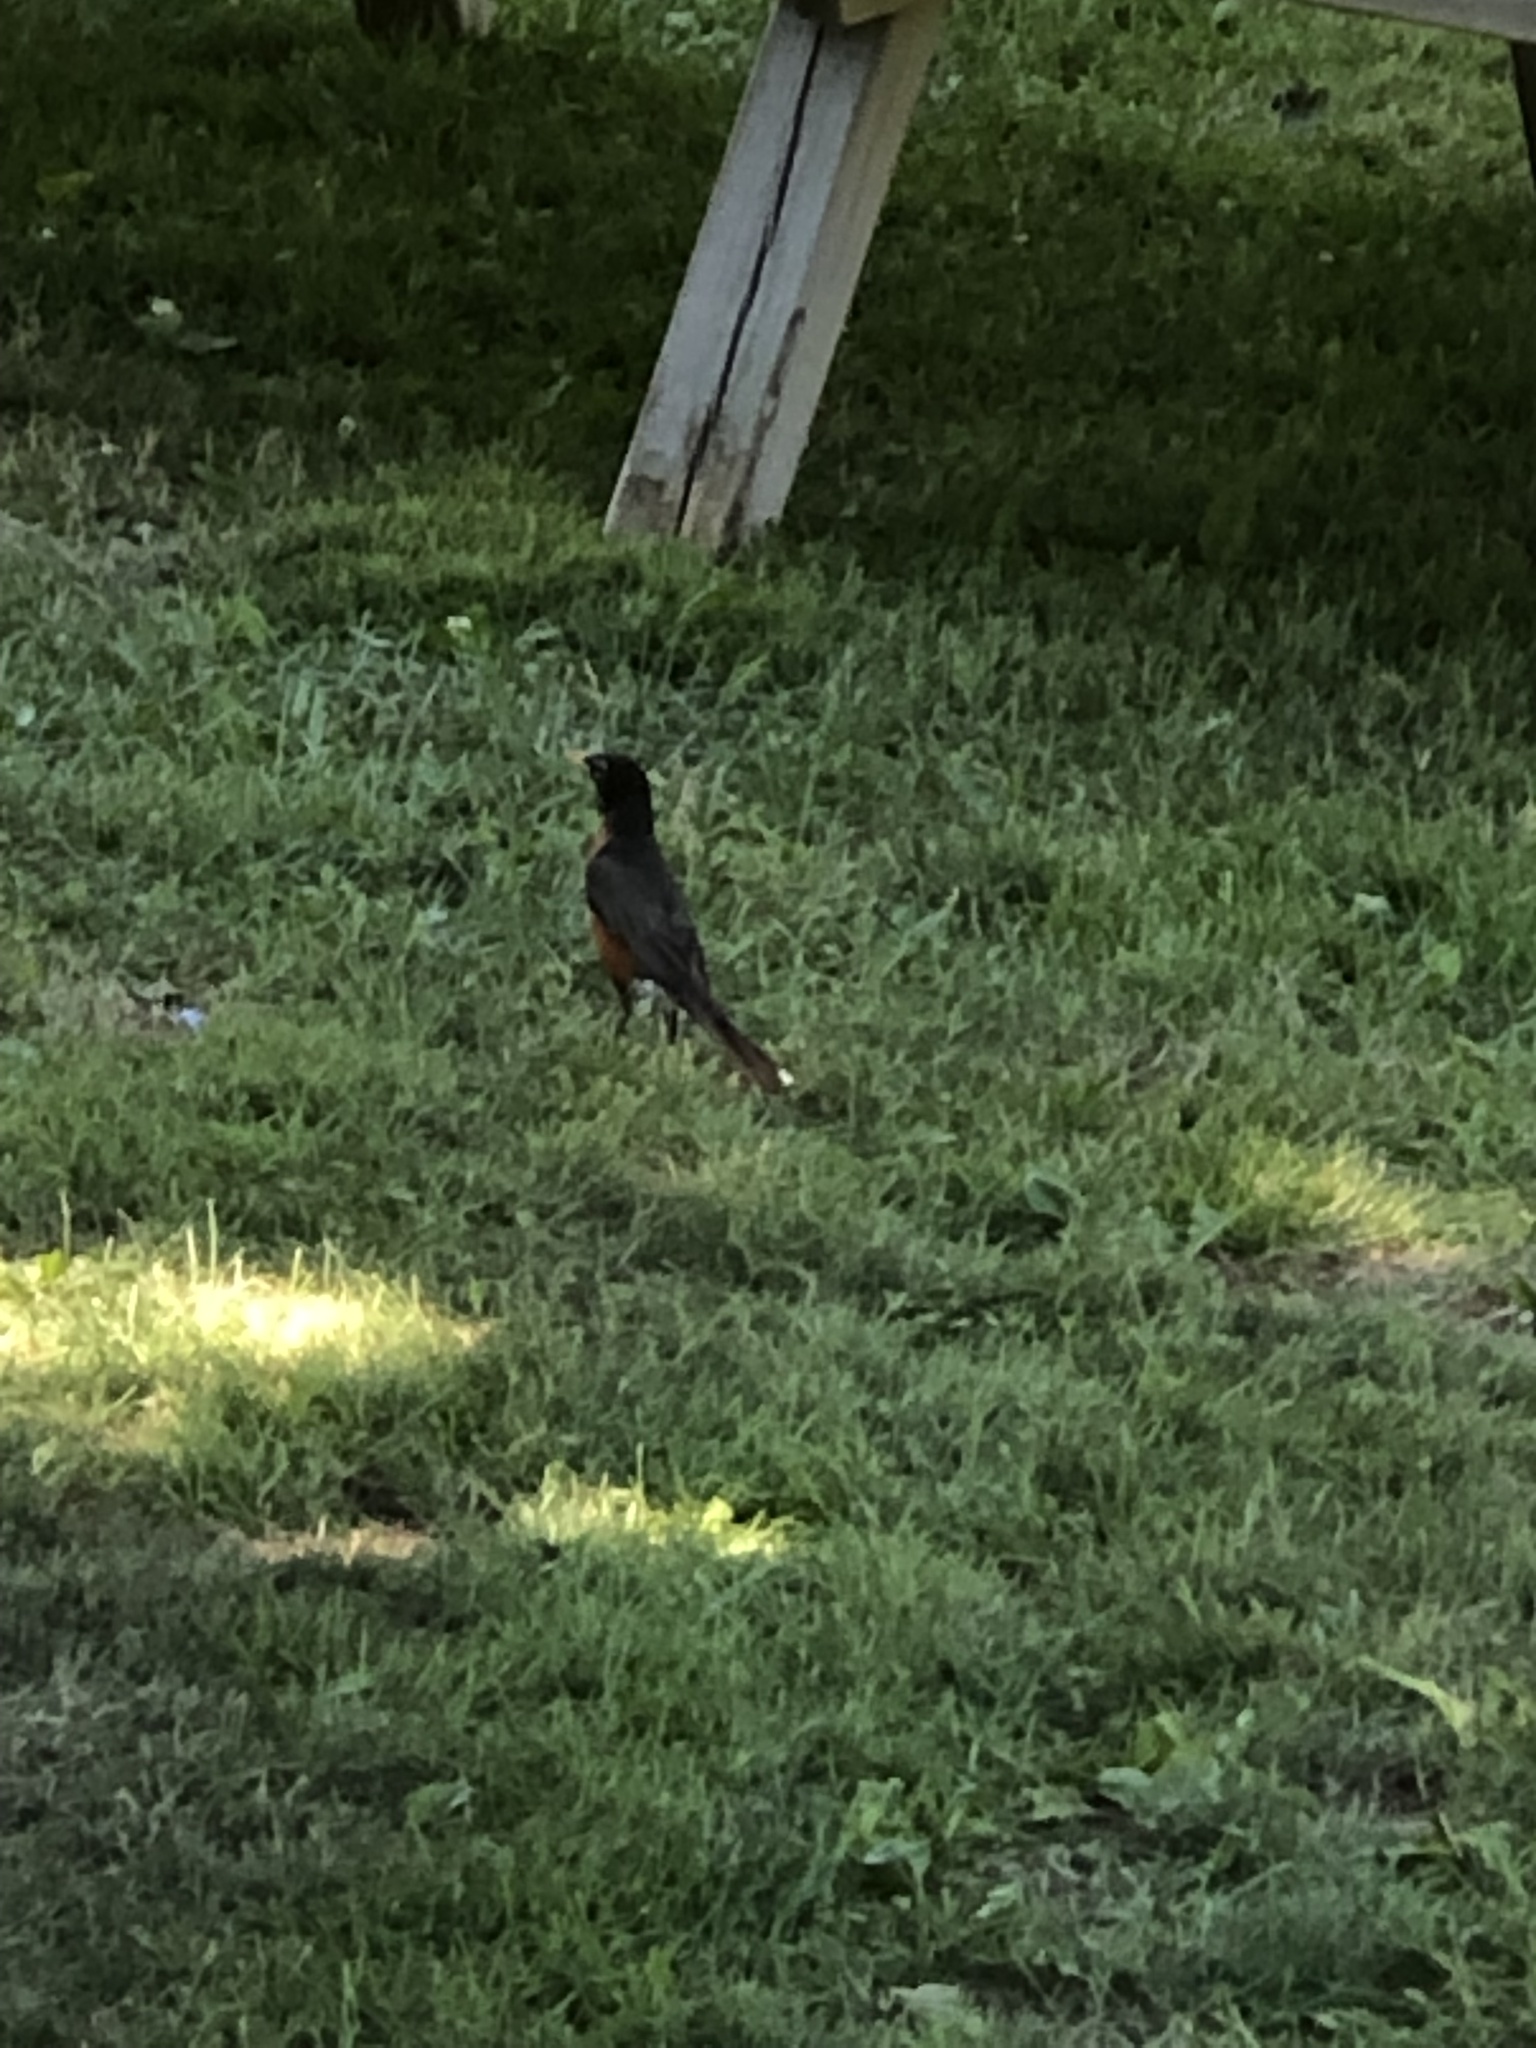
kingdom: Animalia
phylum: Chordata
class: Aves
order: Passeriformes
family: Turdidae
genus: Turdus
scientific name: Turdus migratorius
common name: American robin
